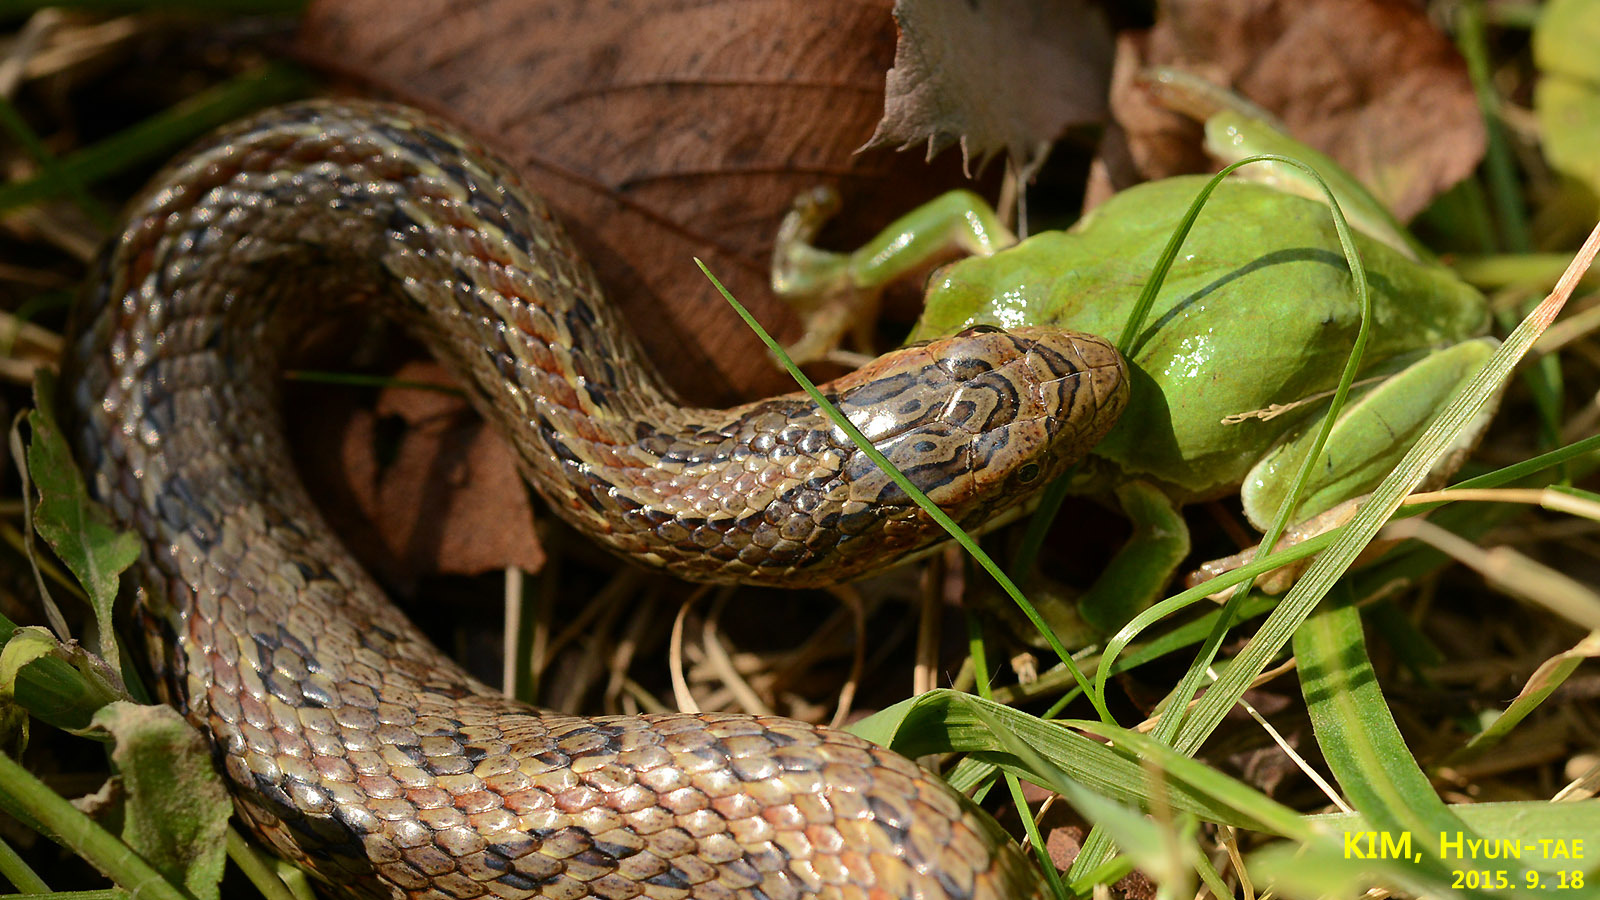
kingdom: Animalia
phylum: Chordata
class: Squamata
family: Colubridae
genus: Oocatochus
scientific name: Oocatochus rufodorsatus
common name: Frog-eating rat snake
